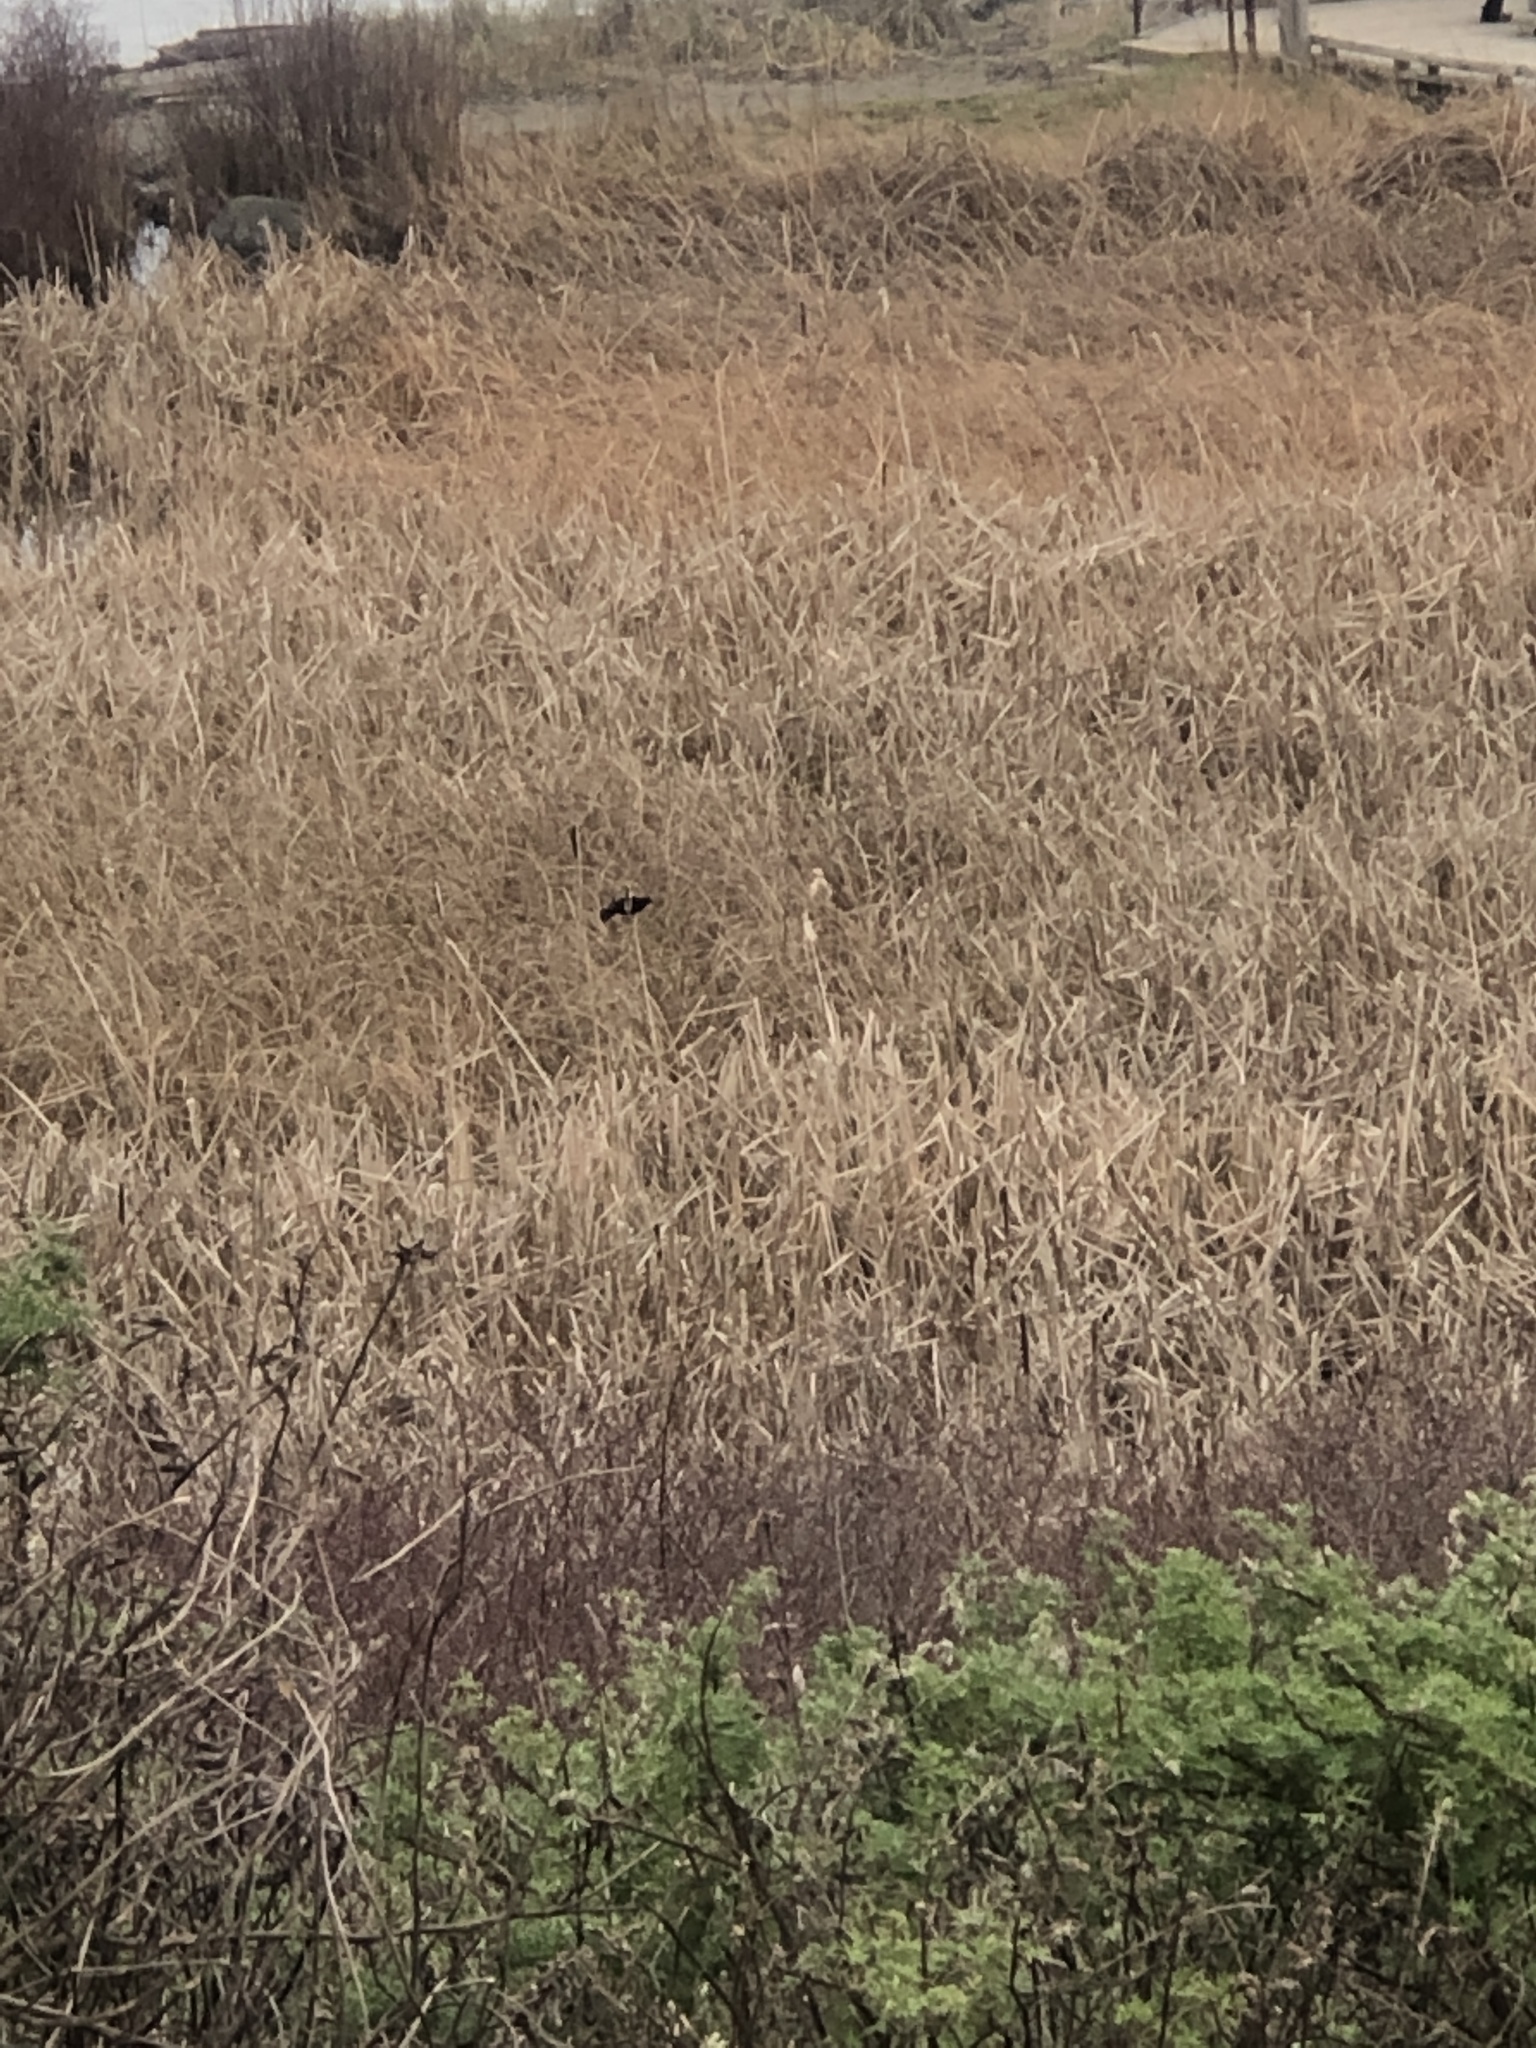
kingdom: Animalia
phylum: Chordata
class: Aves
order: Passeriformes
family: Icteridae
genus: Agelaius
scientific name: Agelaius phoeniceus
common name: Red-winged blackbird
